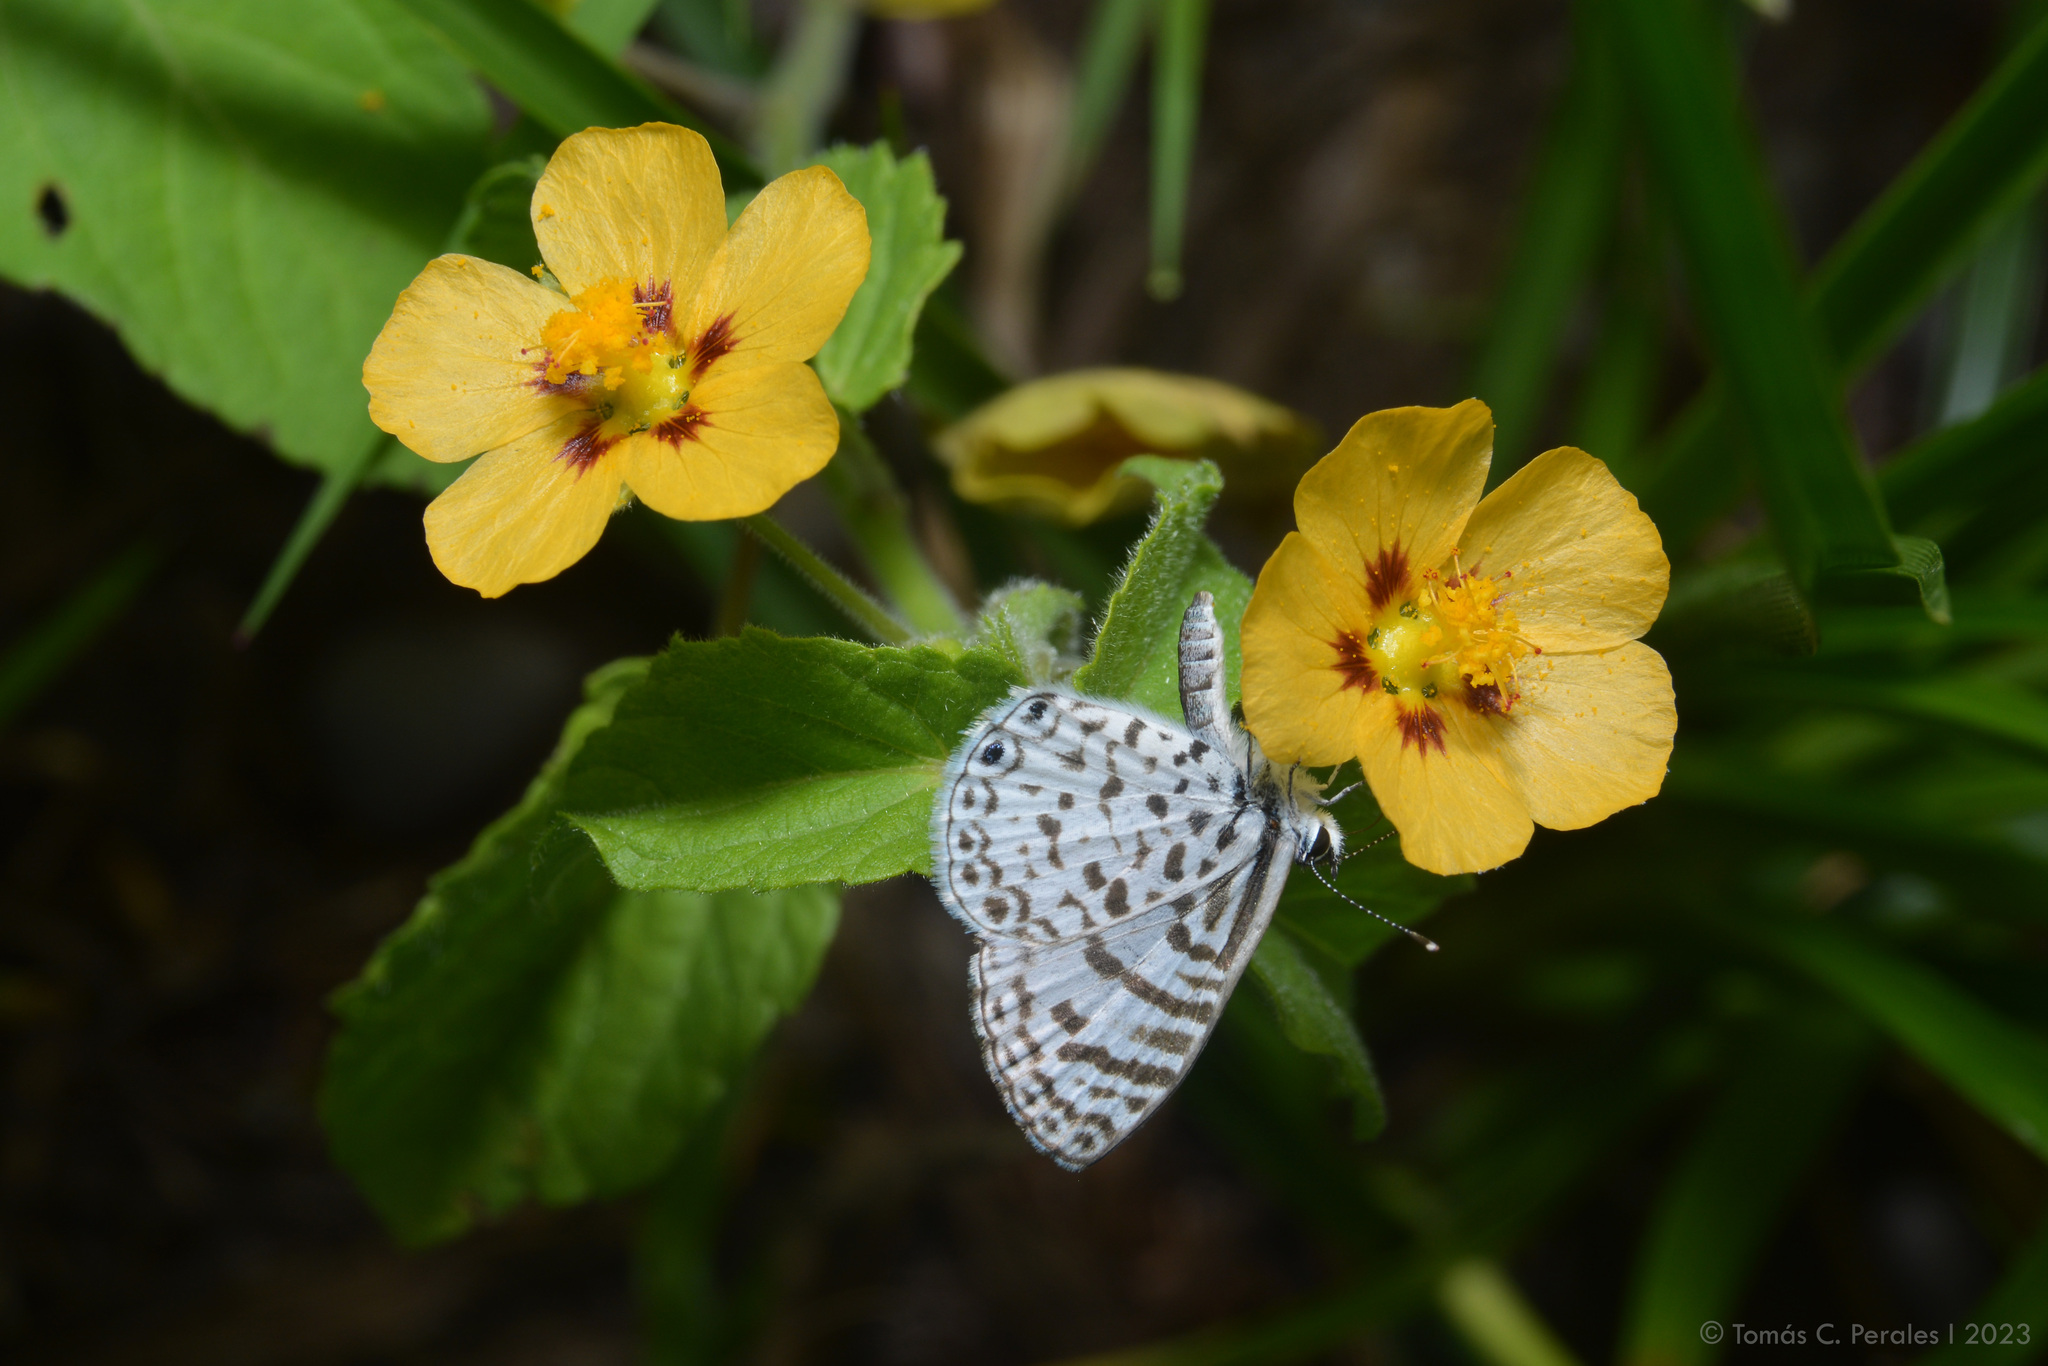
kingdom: Animalia
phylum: Arthropoda
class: Insecta
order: Lepidoptera
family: Lycaenidae
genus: Leptotes
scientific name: Leptotes cassius
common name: Cassius blue
